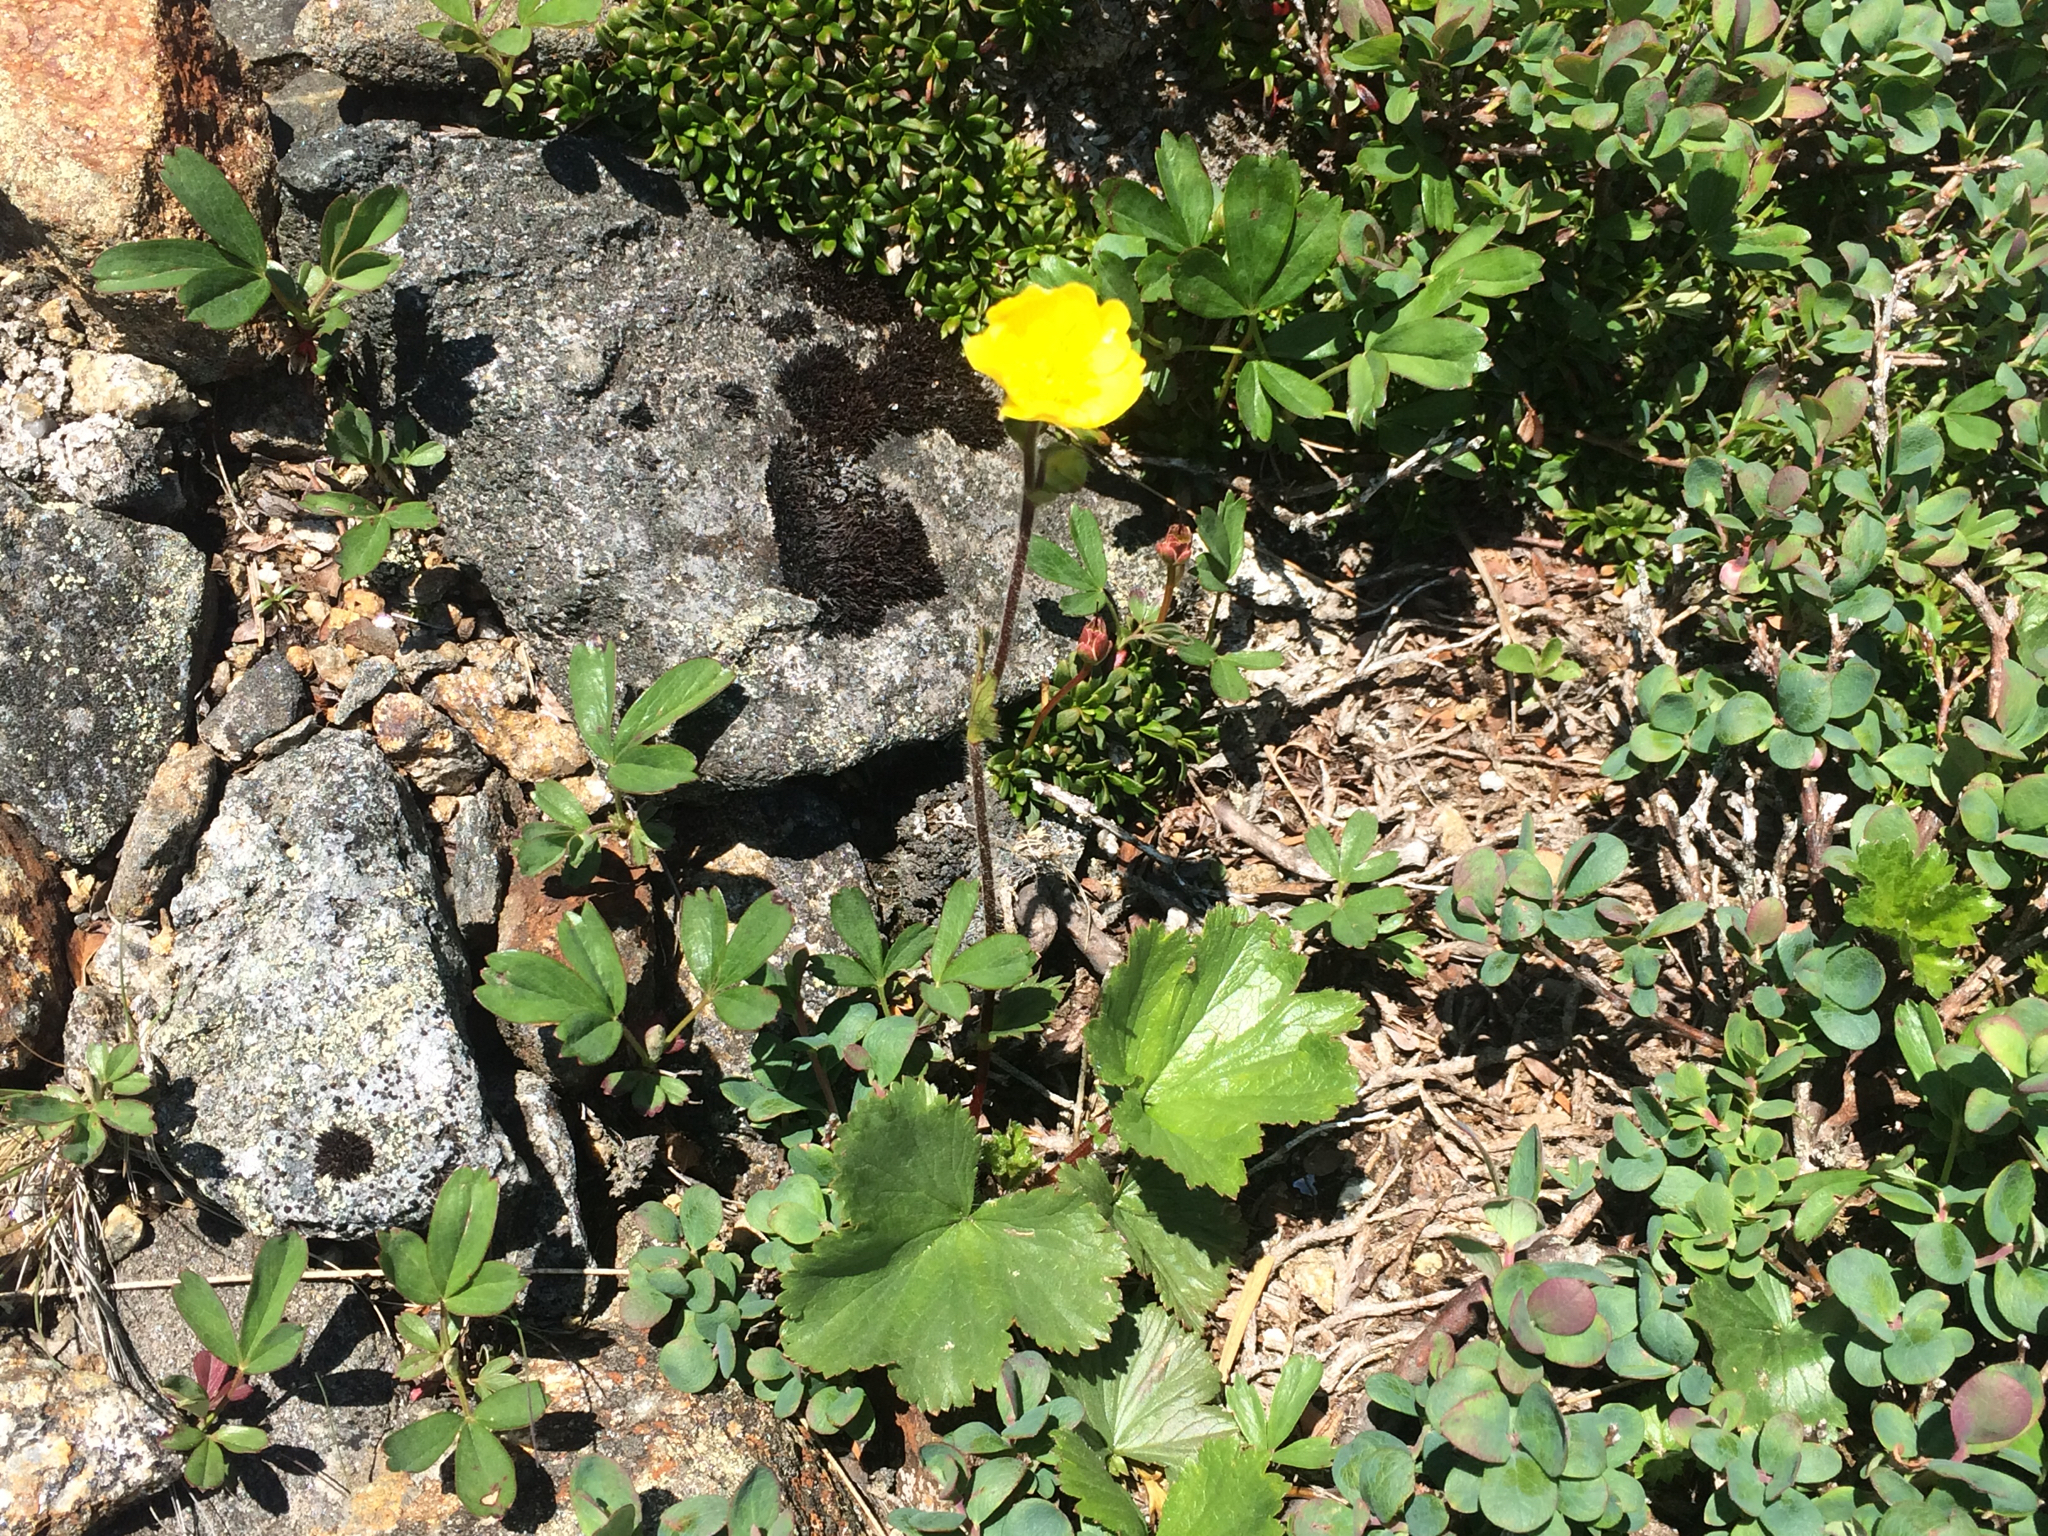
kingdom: Plantae
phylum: Tracheophyta
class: Magnoliopsida
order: Rosales
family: Rosaceae
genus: Geum
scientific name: Geum peckii
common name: Eastern mountain avens
